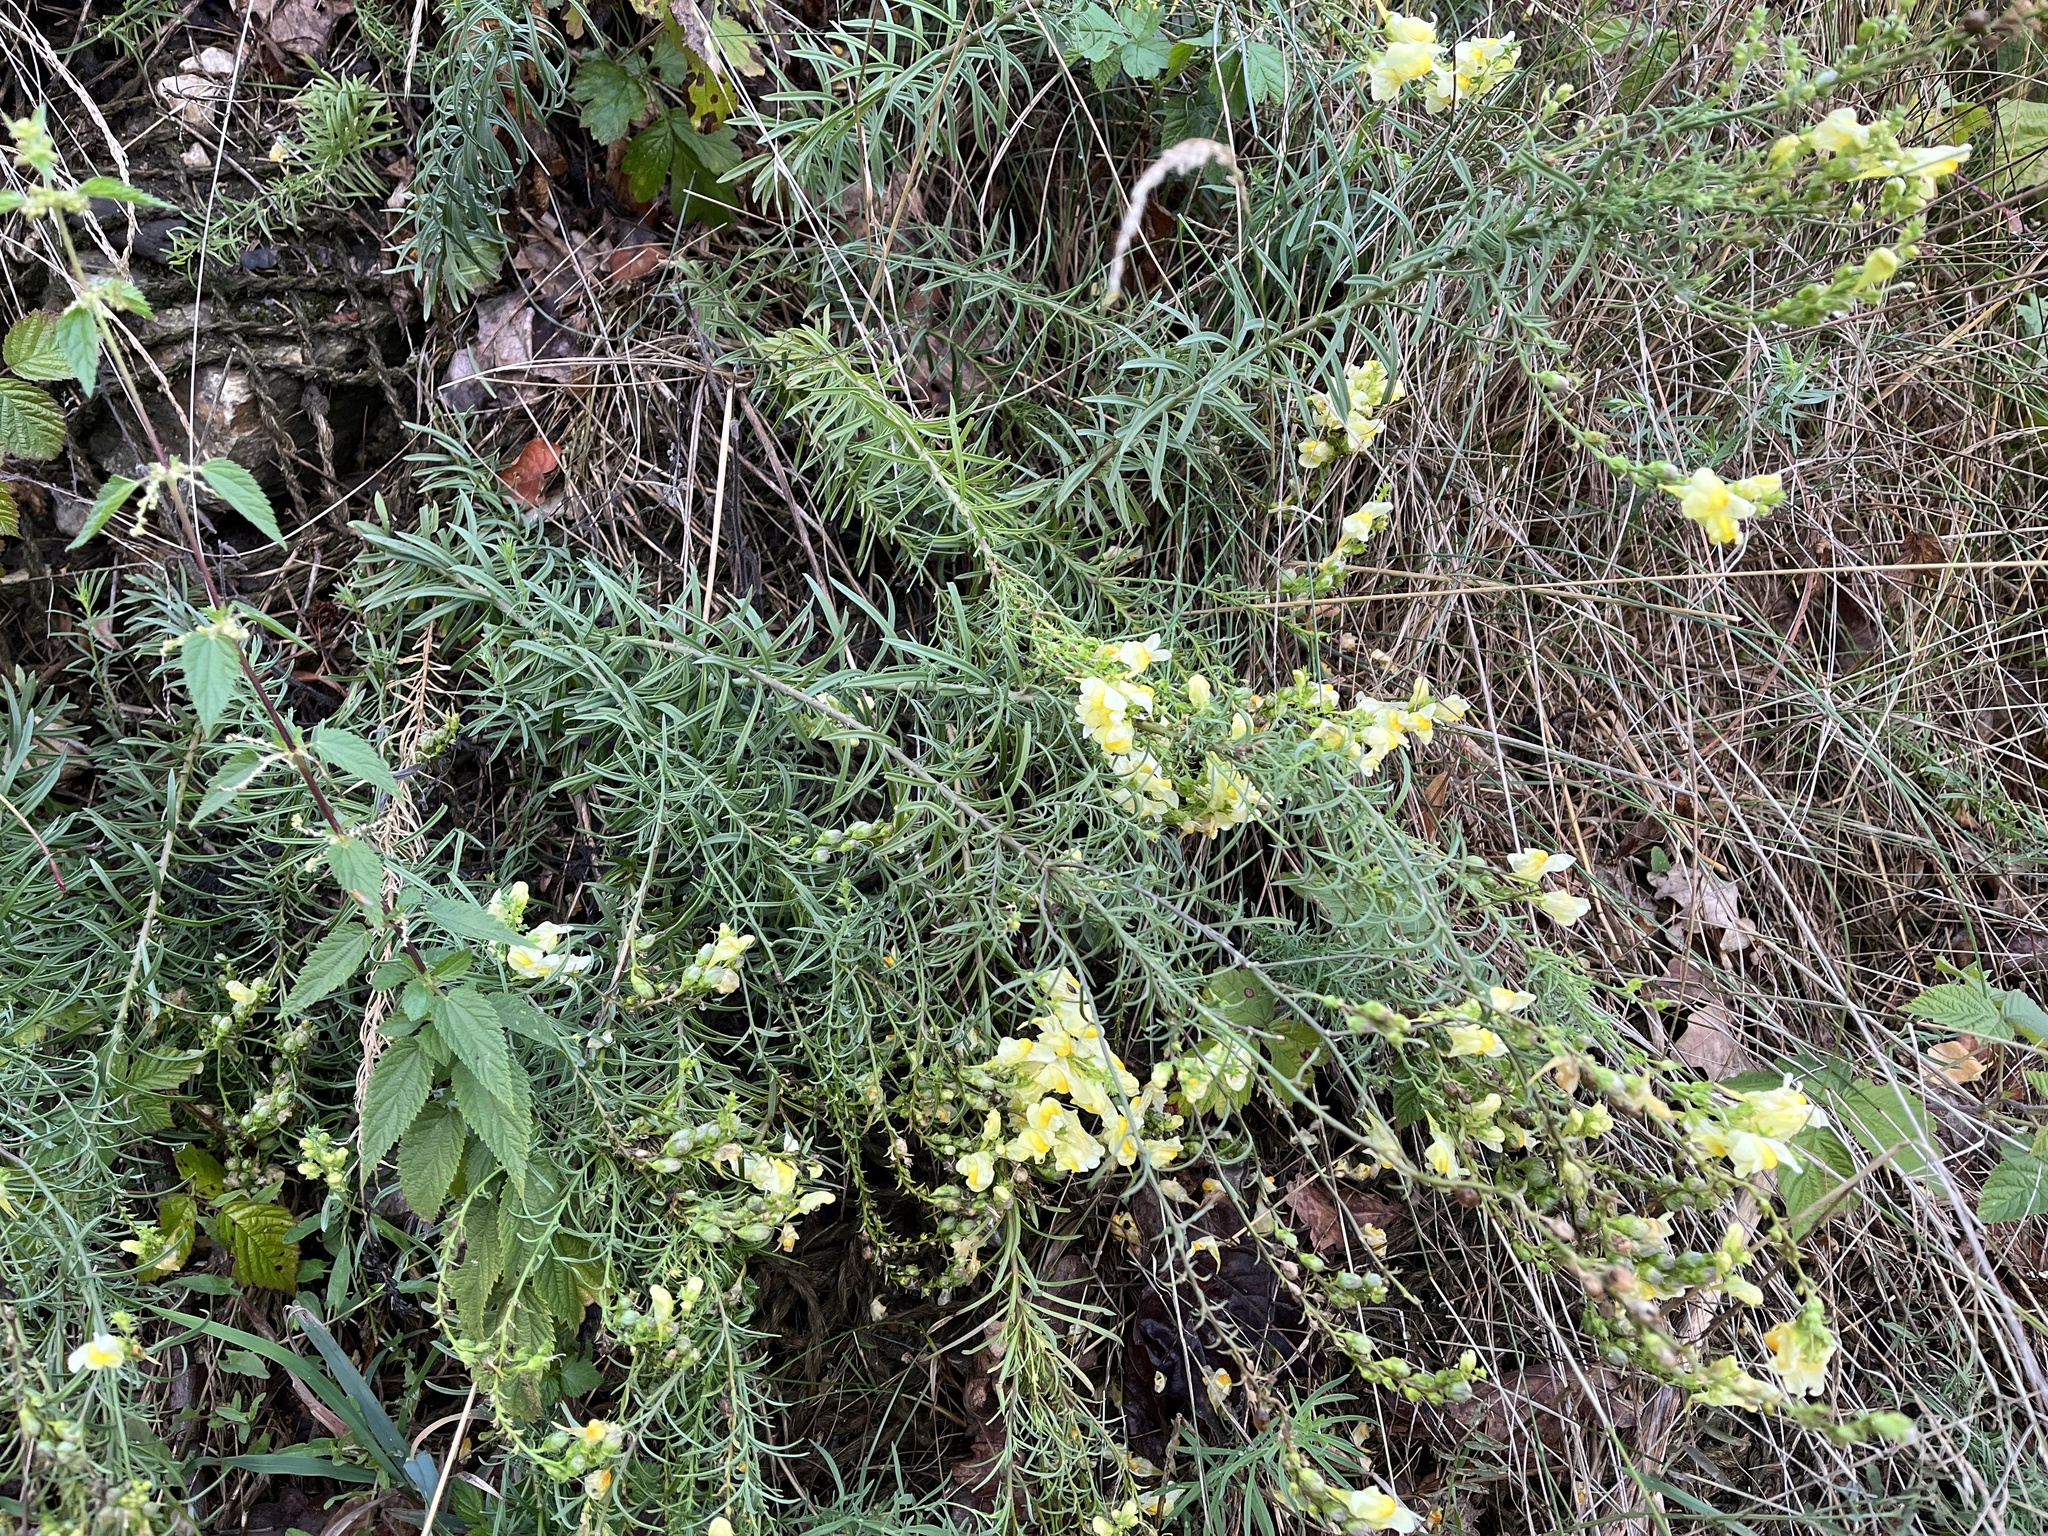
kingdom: Plantae
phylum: Tracheophyta
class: Magnoliopsida
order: Lamiales
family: Plantaginaceae
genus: Linaria
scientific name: Linaria vulgaris
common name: Butter and eggs
